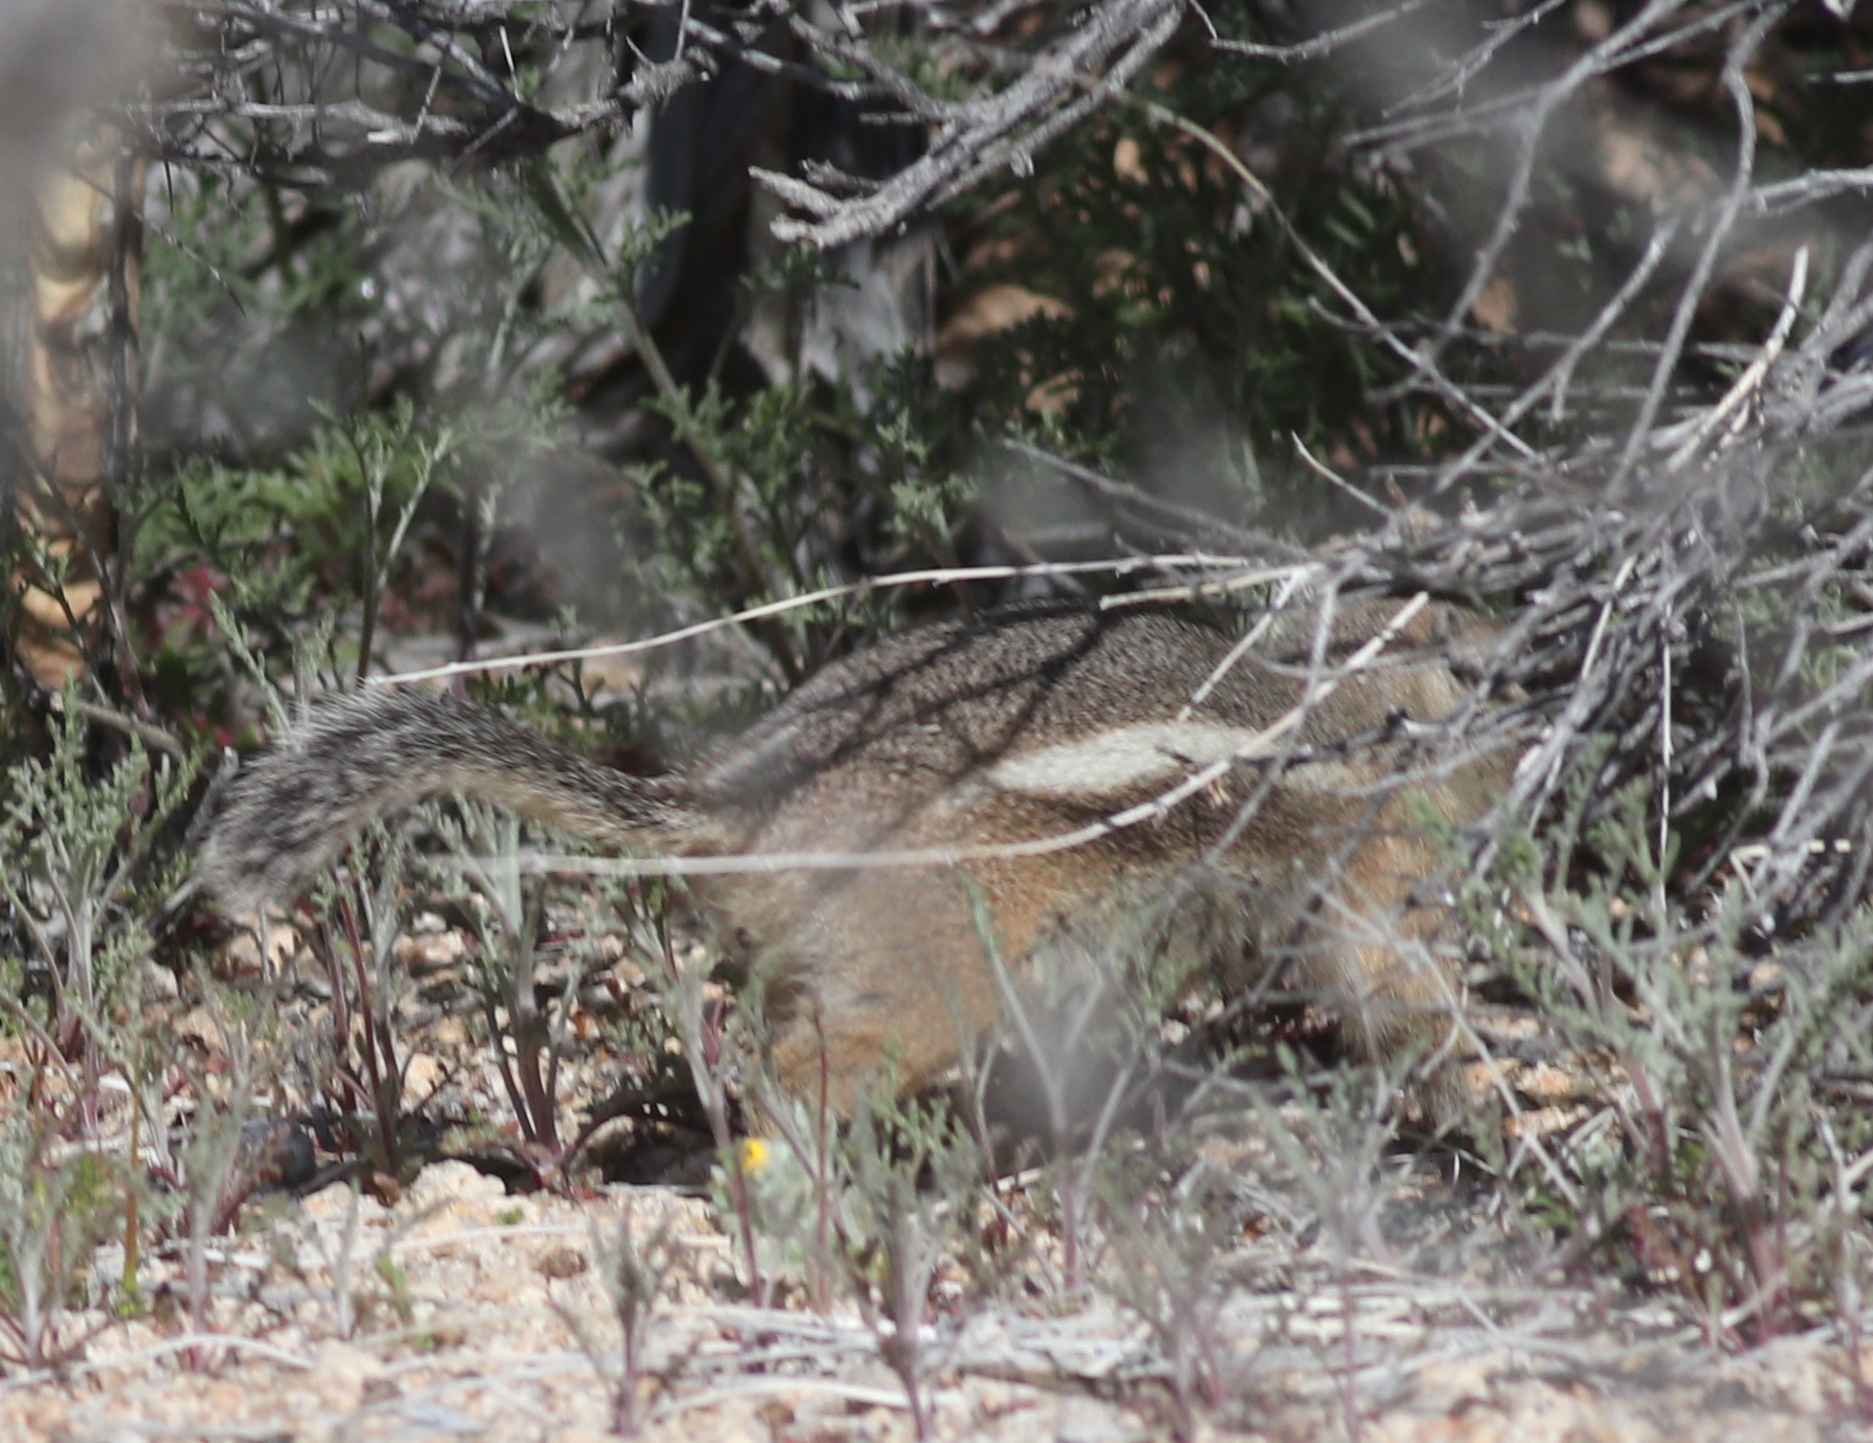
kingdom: Animalia
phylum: Chordata
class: Mammalia
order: Rodentia
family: Sciuridae
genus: Ammospermophilus
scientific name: Ammospermophilus leucurus
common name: White-tailed antelope squirrel
